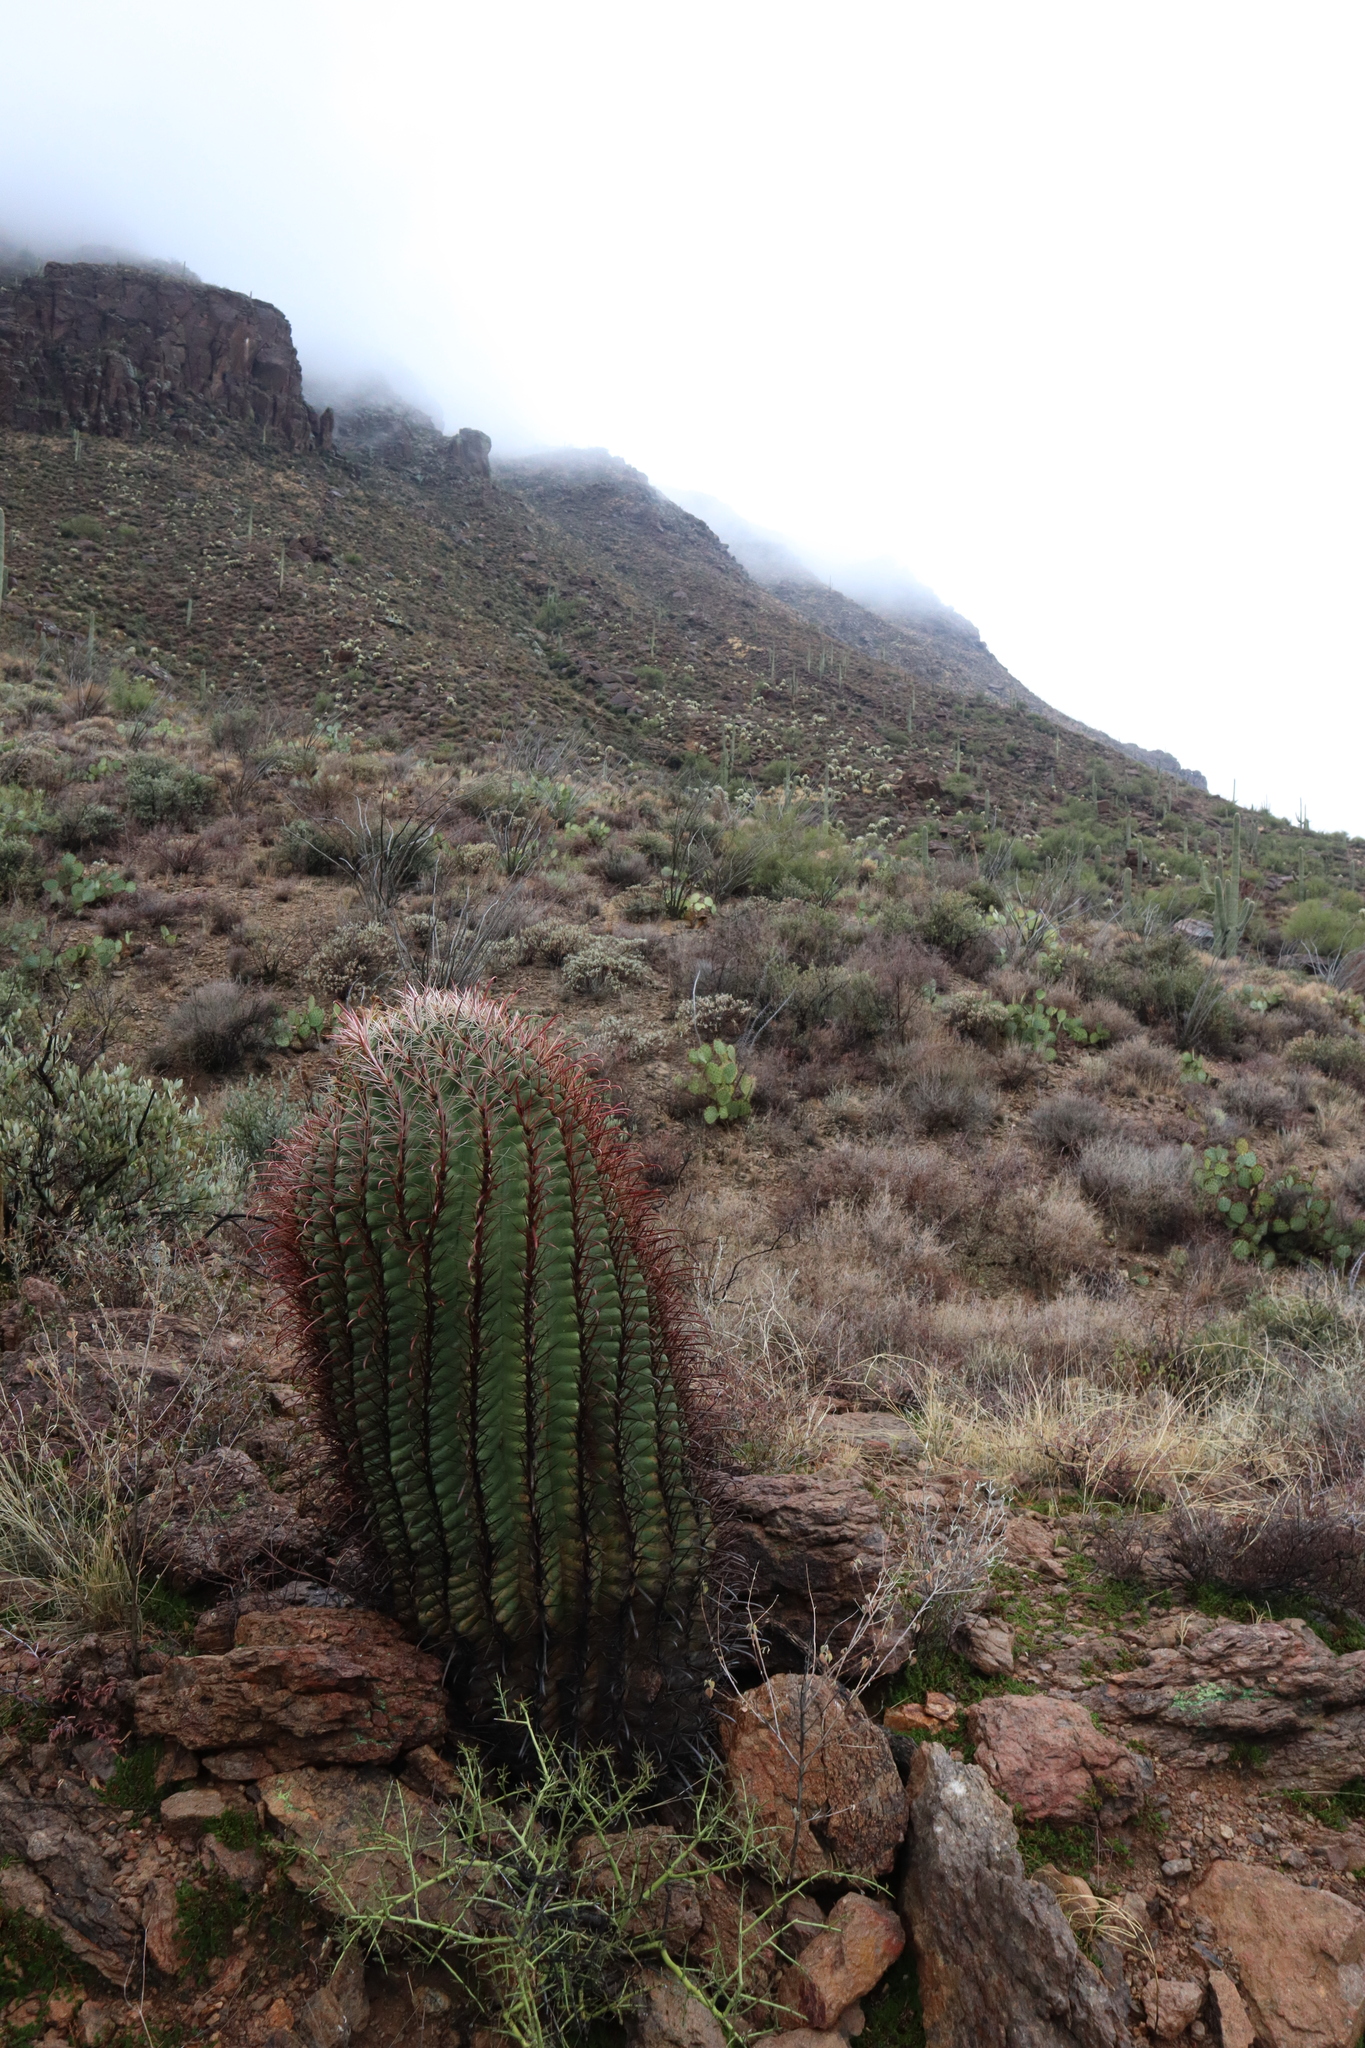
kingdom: Plantae
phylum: Tracheophyta
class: Magnoliopsida
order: Caryophyllales
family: Cactaceae
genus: Ferocactus
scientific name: Ferocactus wislizeni
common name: Candy barrel cactus
